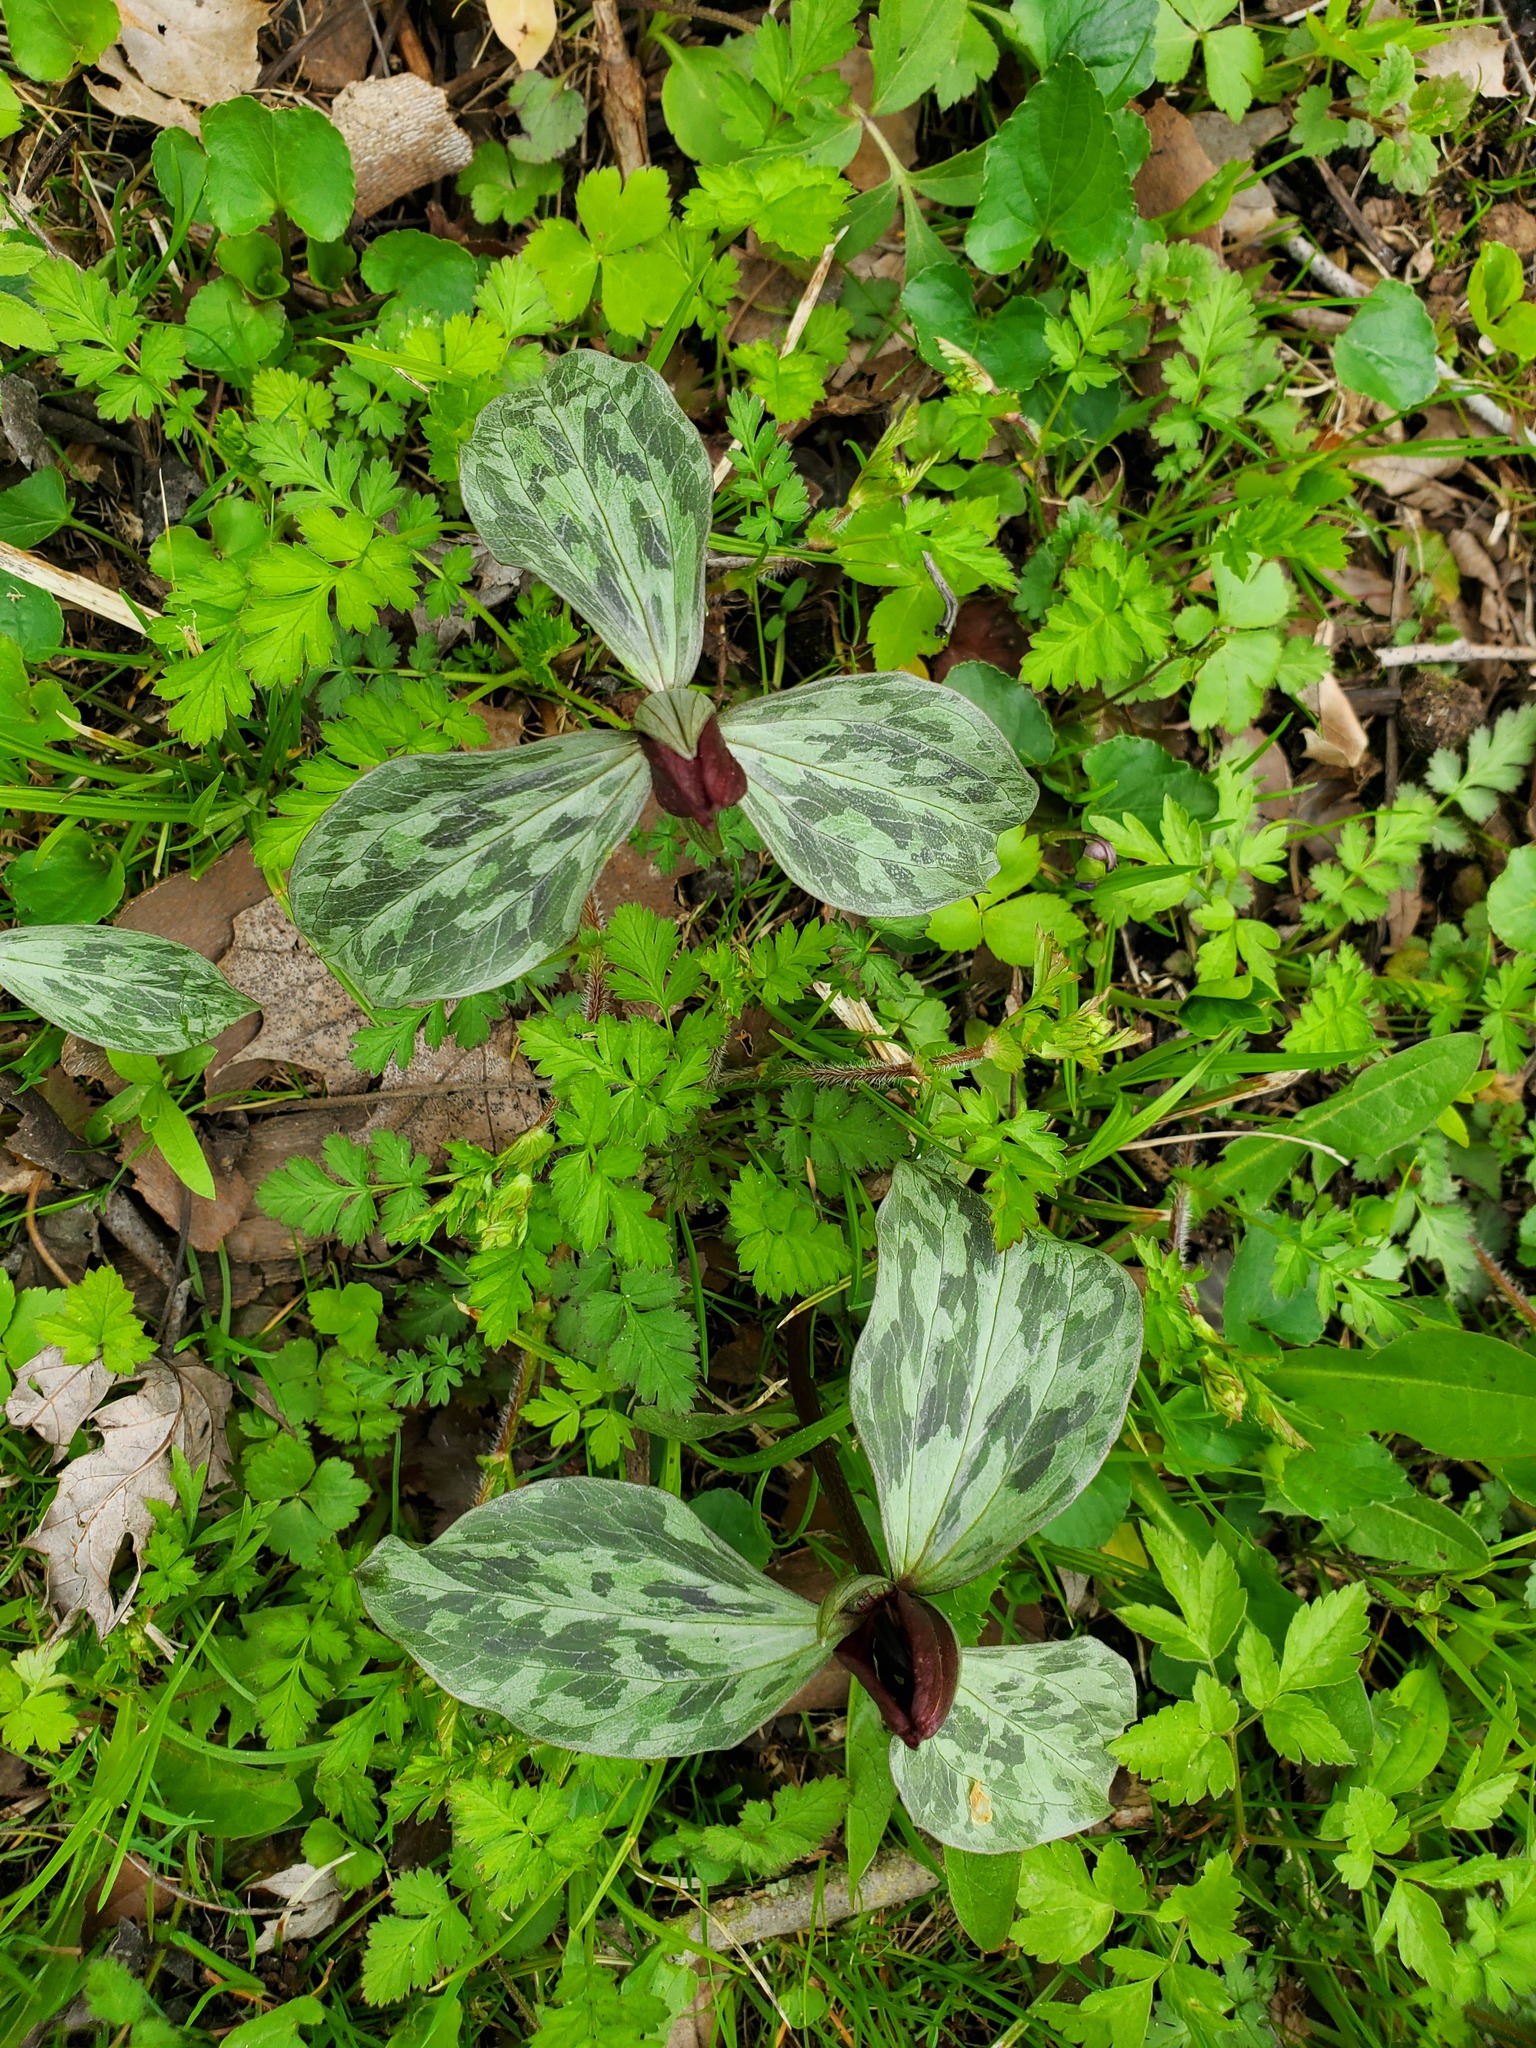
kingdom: Plantae
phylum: Tracheophyta
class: Liliopsida
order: Liliales
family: Melanthiaceae
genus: Trillium
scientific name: Trillium recurvatum
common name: Bloody butcher
